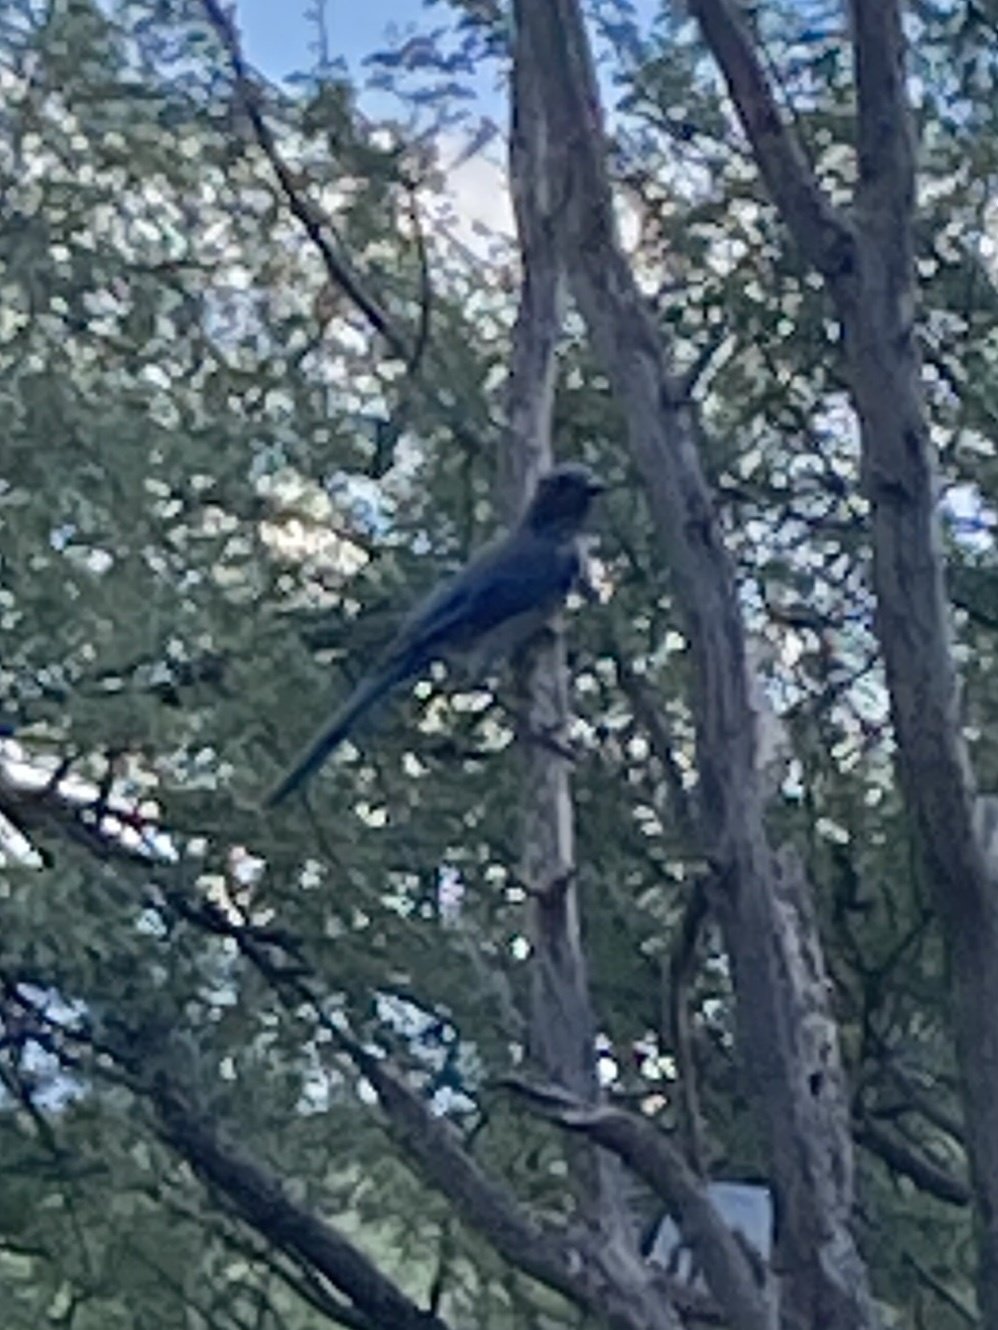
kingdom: Animalia
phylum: Chordata
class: Aves
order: Passeriformes
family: Corvidae
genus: Aphelocoma
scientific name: Aphelocoma woodhouseii
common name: Woodhouse's scrub-jay
